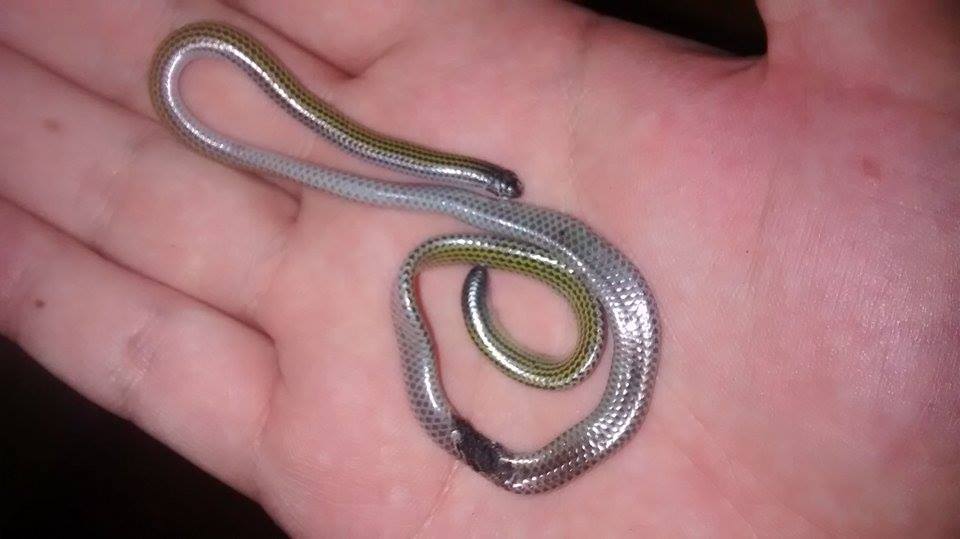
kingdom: Animalia
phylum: Chordata
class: Squamata
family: Leptotyphlopidae
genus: Epictia
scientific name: Epictia munoai
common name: Rio grande do sul blind snake
